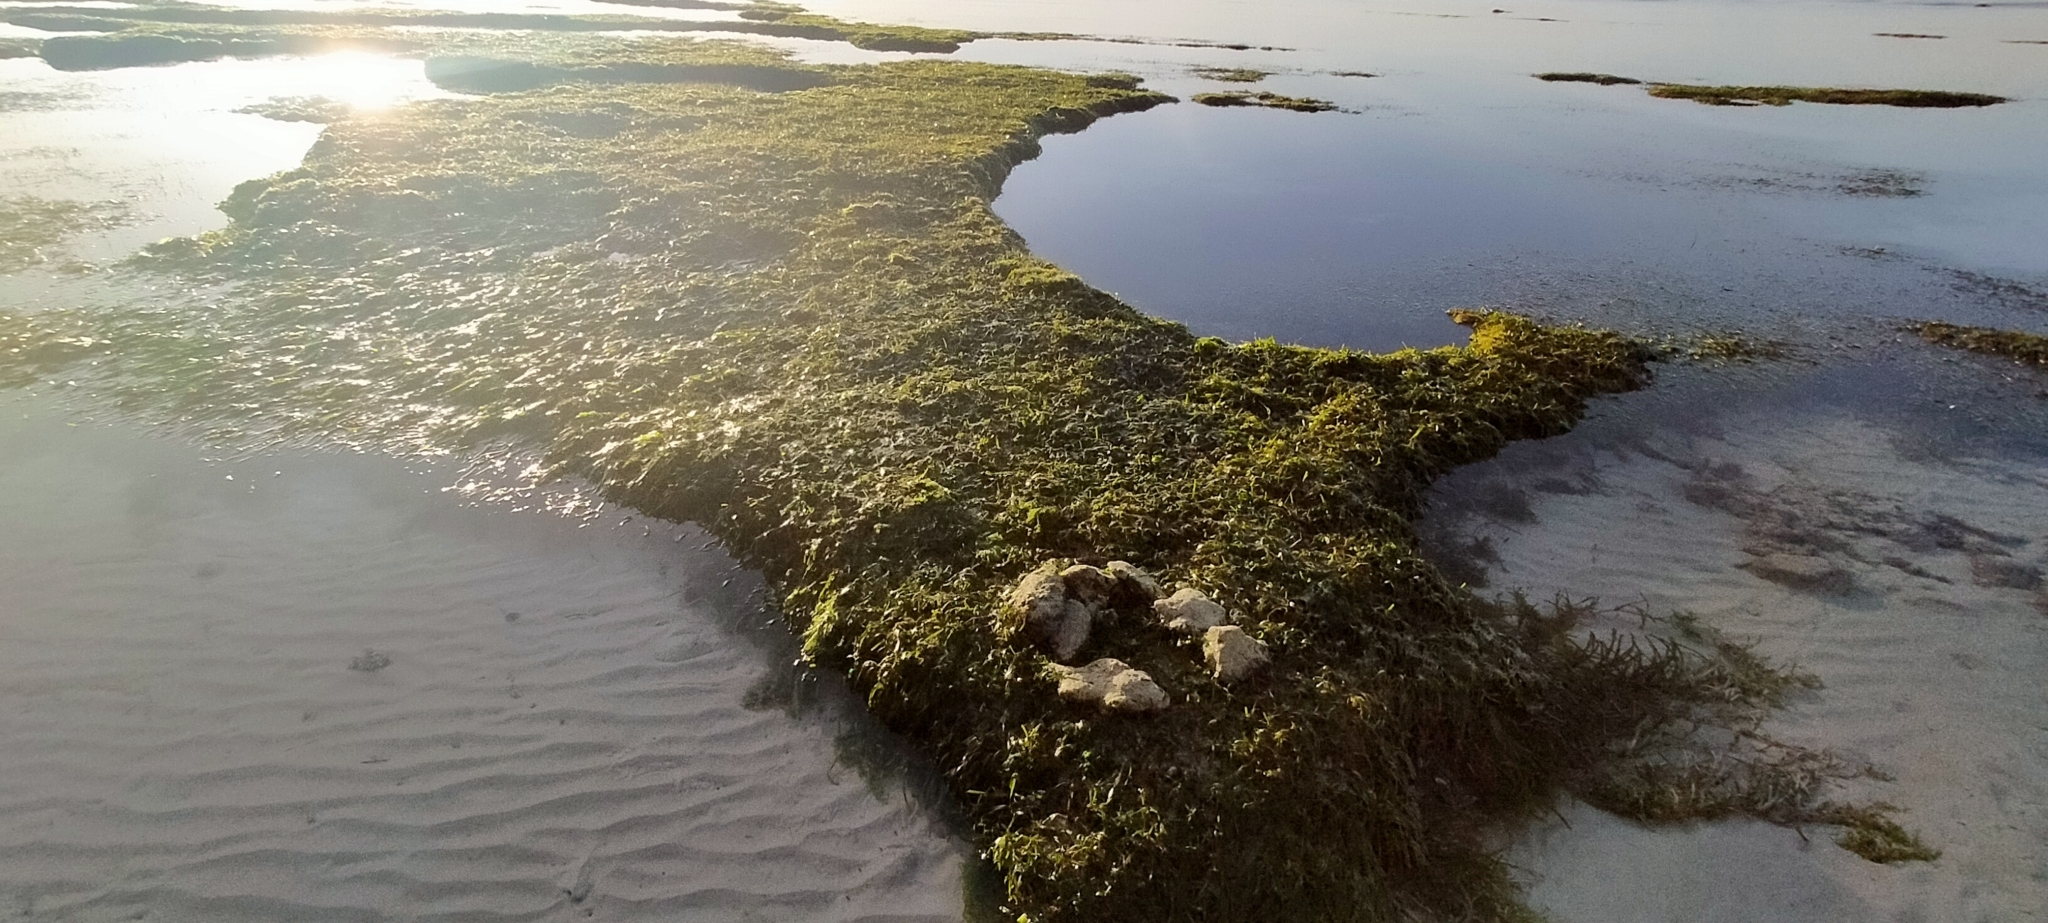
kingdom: Plantae
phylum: Tracheophyta
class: Liliopsida
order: Alismatales
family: Hydrocharitaceae
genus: Thalassia
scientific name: Thalassia hemprichii
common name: Species code: th
